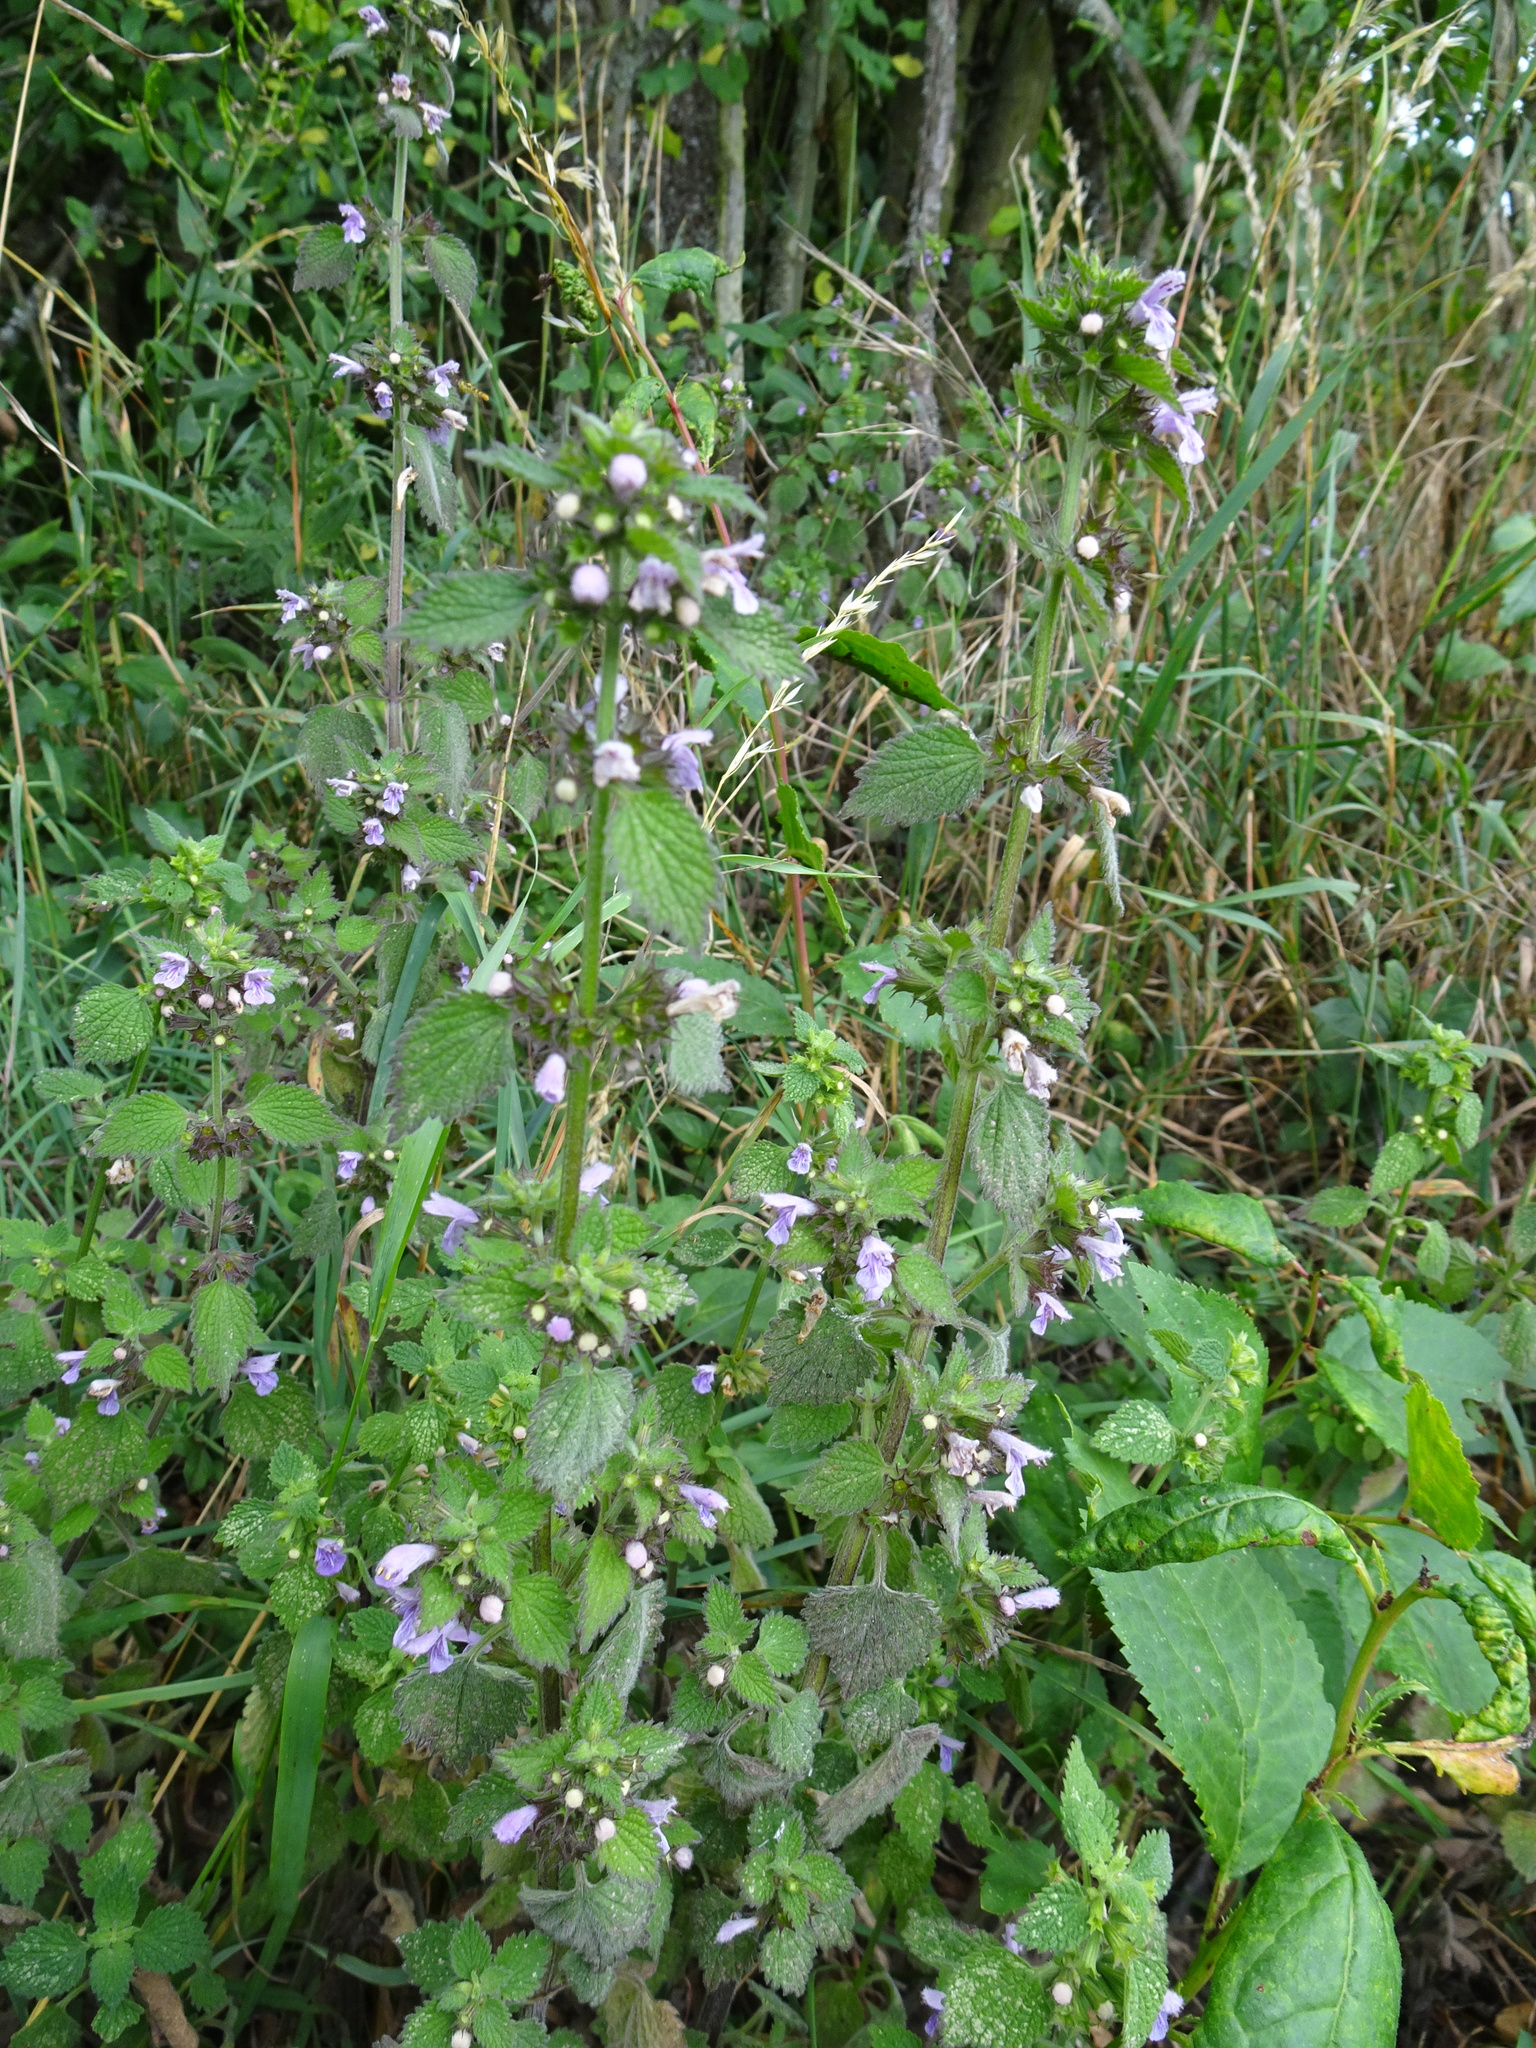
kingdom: Plantae
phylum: Tracheophyta
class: Magnoliopsida
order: Lamiales
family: Lamiaceae
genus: Ballota
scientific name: Ballota nigra
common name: Black horehound
